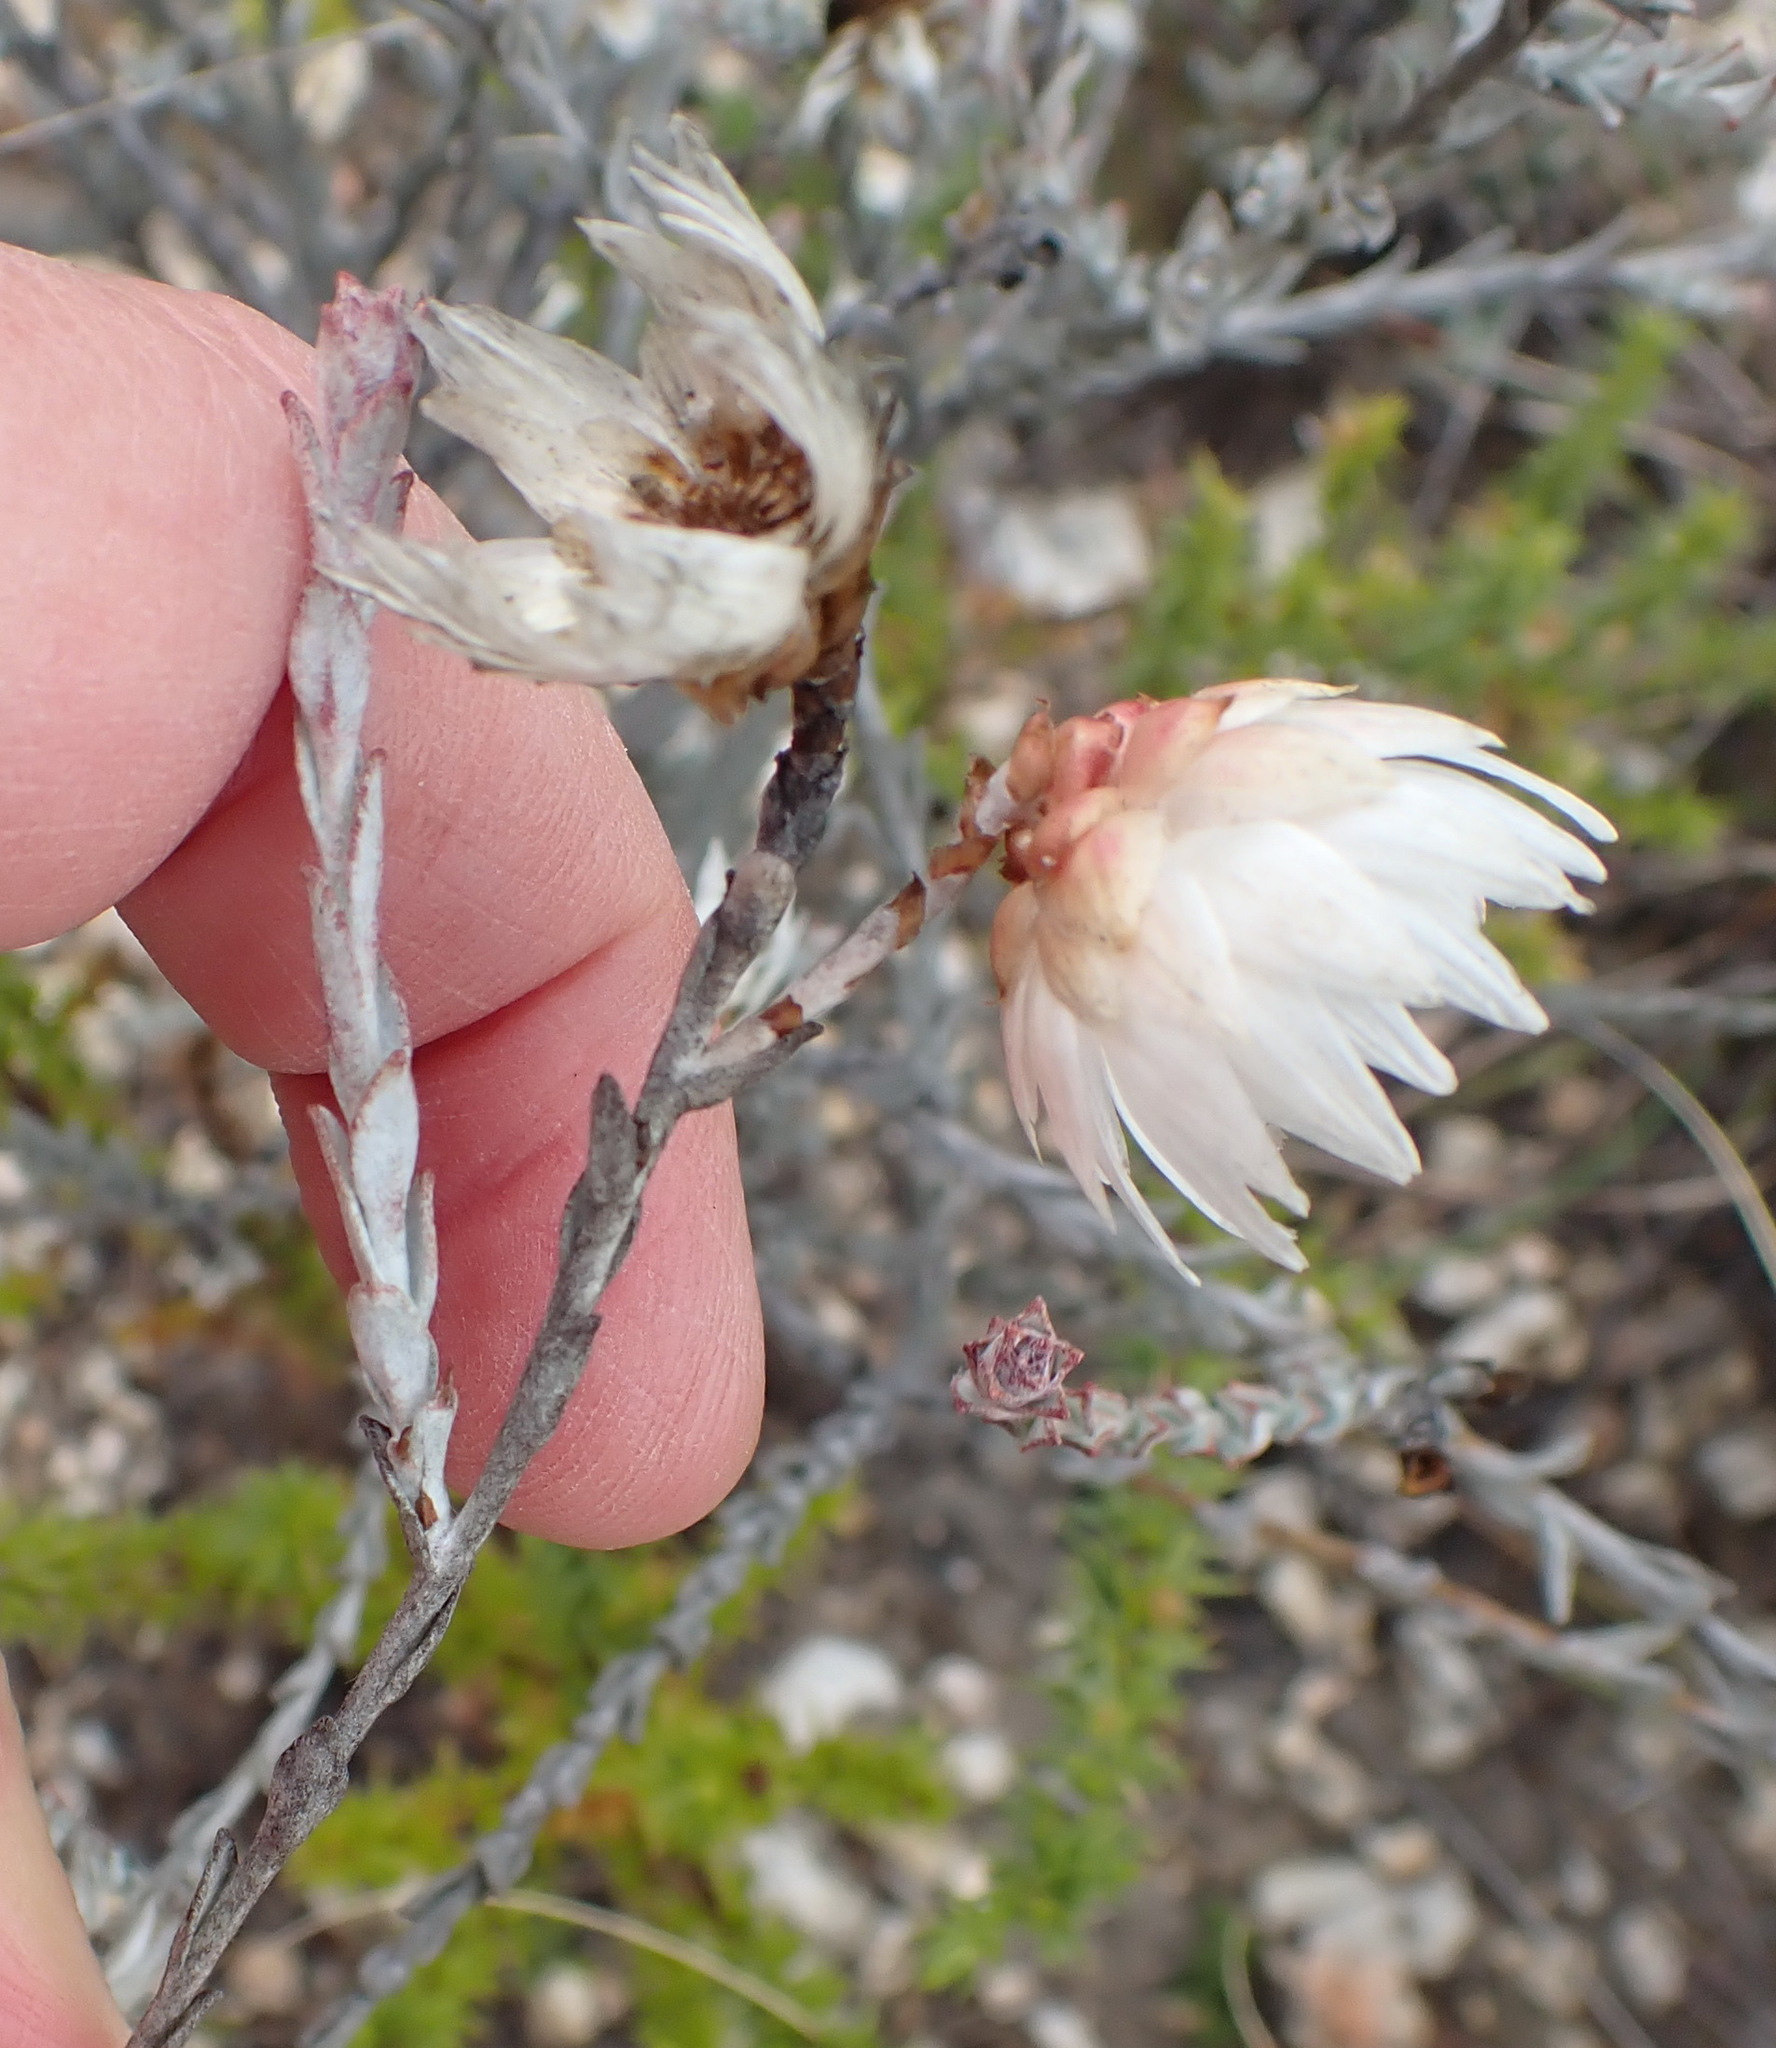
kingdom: Plantae
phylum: Tracheophyta
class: Magnoliopsida
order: Asterales
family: Asteraceae
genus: Syncarpha
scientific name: Syncarpha canescens
